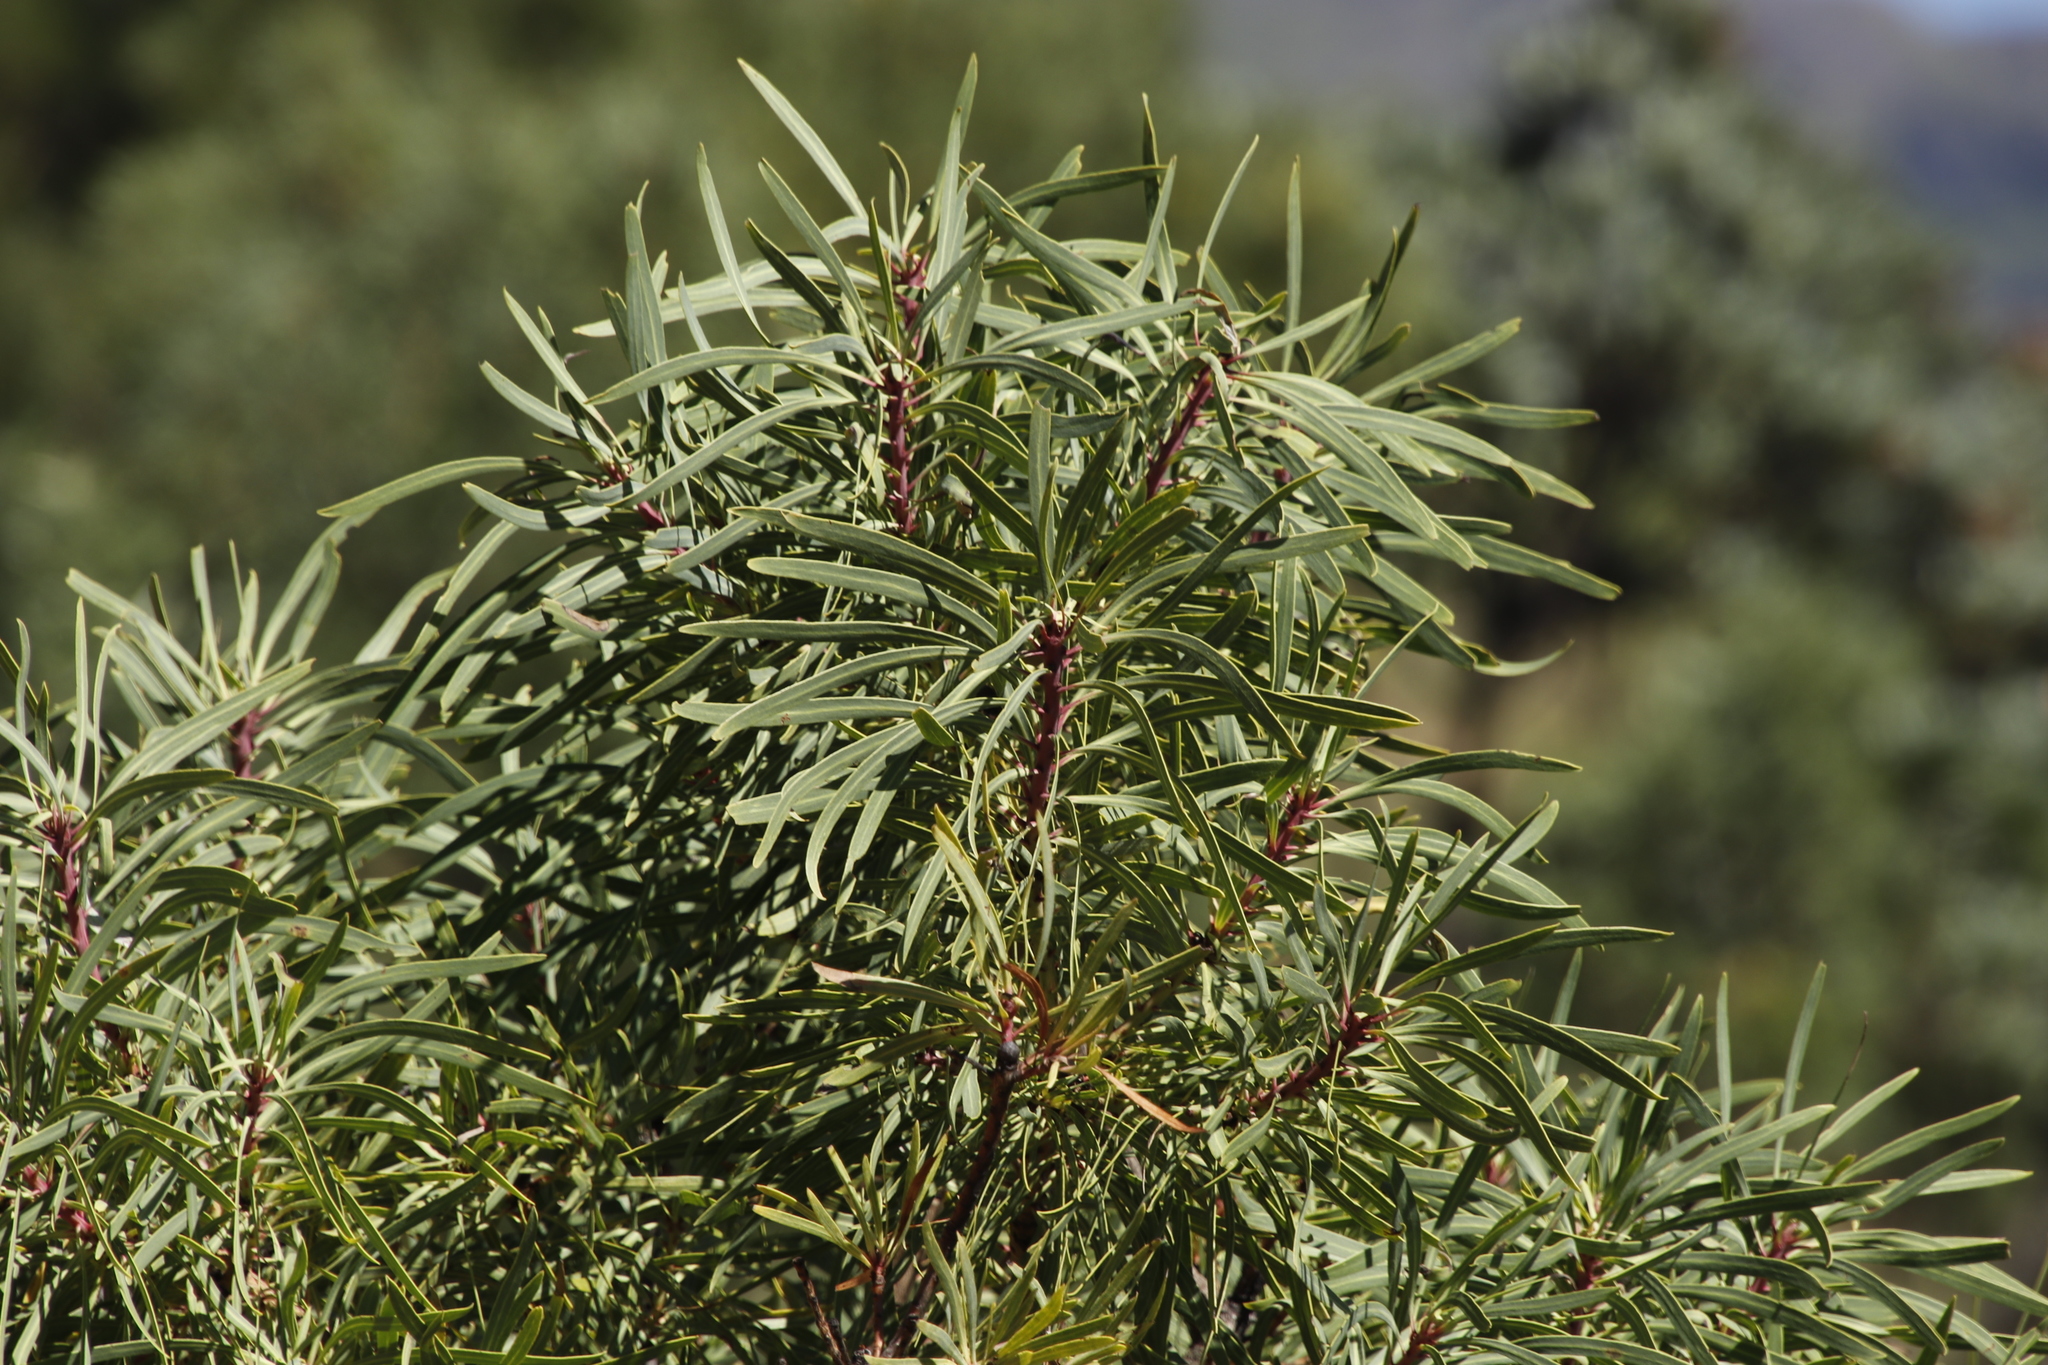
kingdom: Plantae
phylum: Tracheophyta
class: Magnoliopsida
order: Proteales
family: Proteaceae
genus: Protea
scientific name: Protea caffra
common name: Common sugarbush
